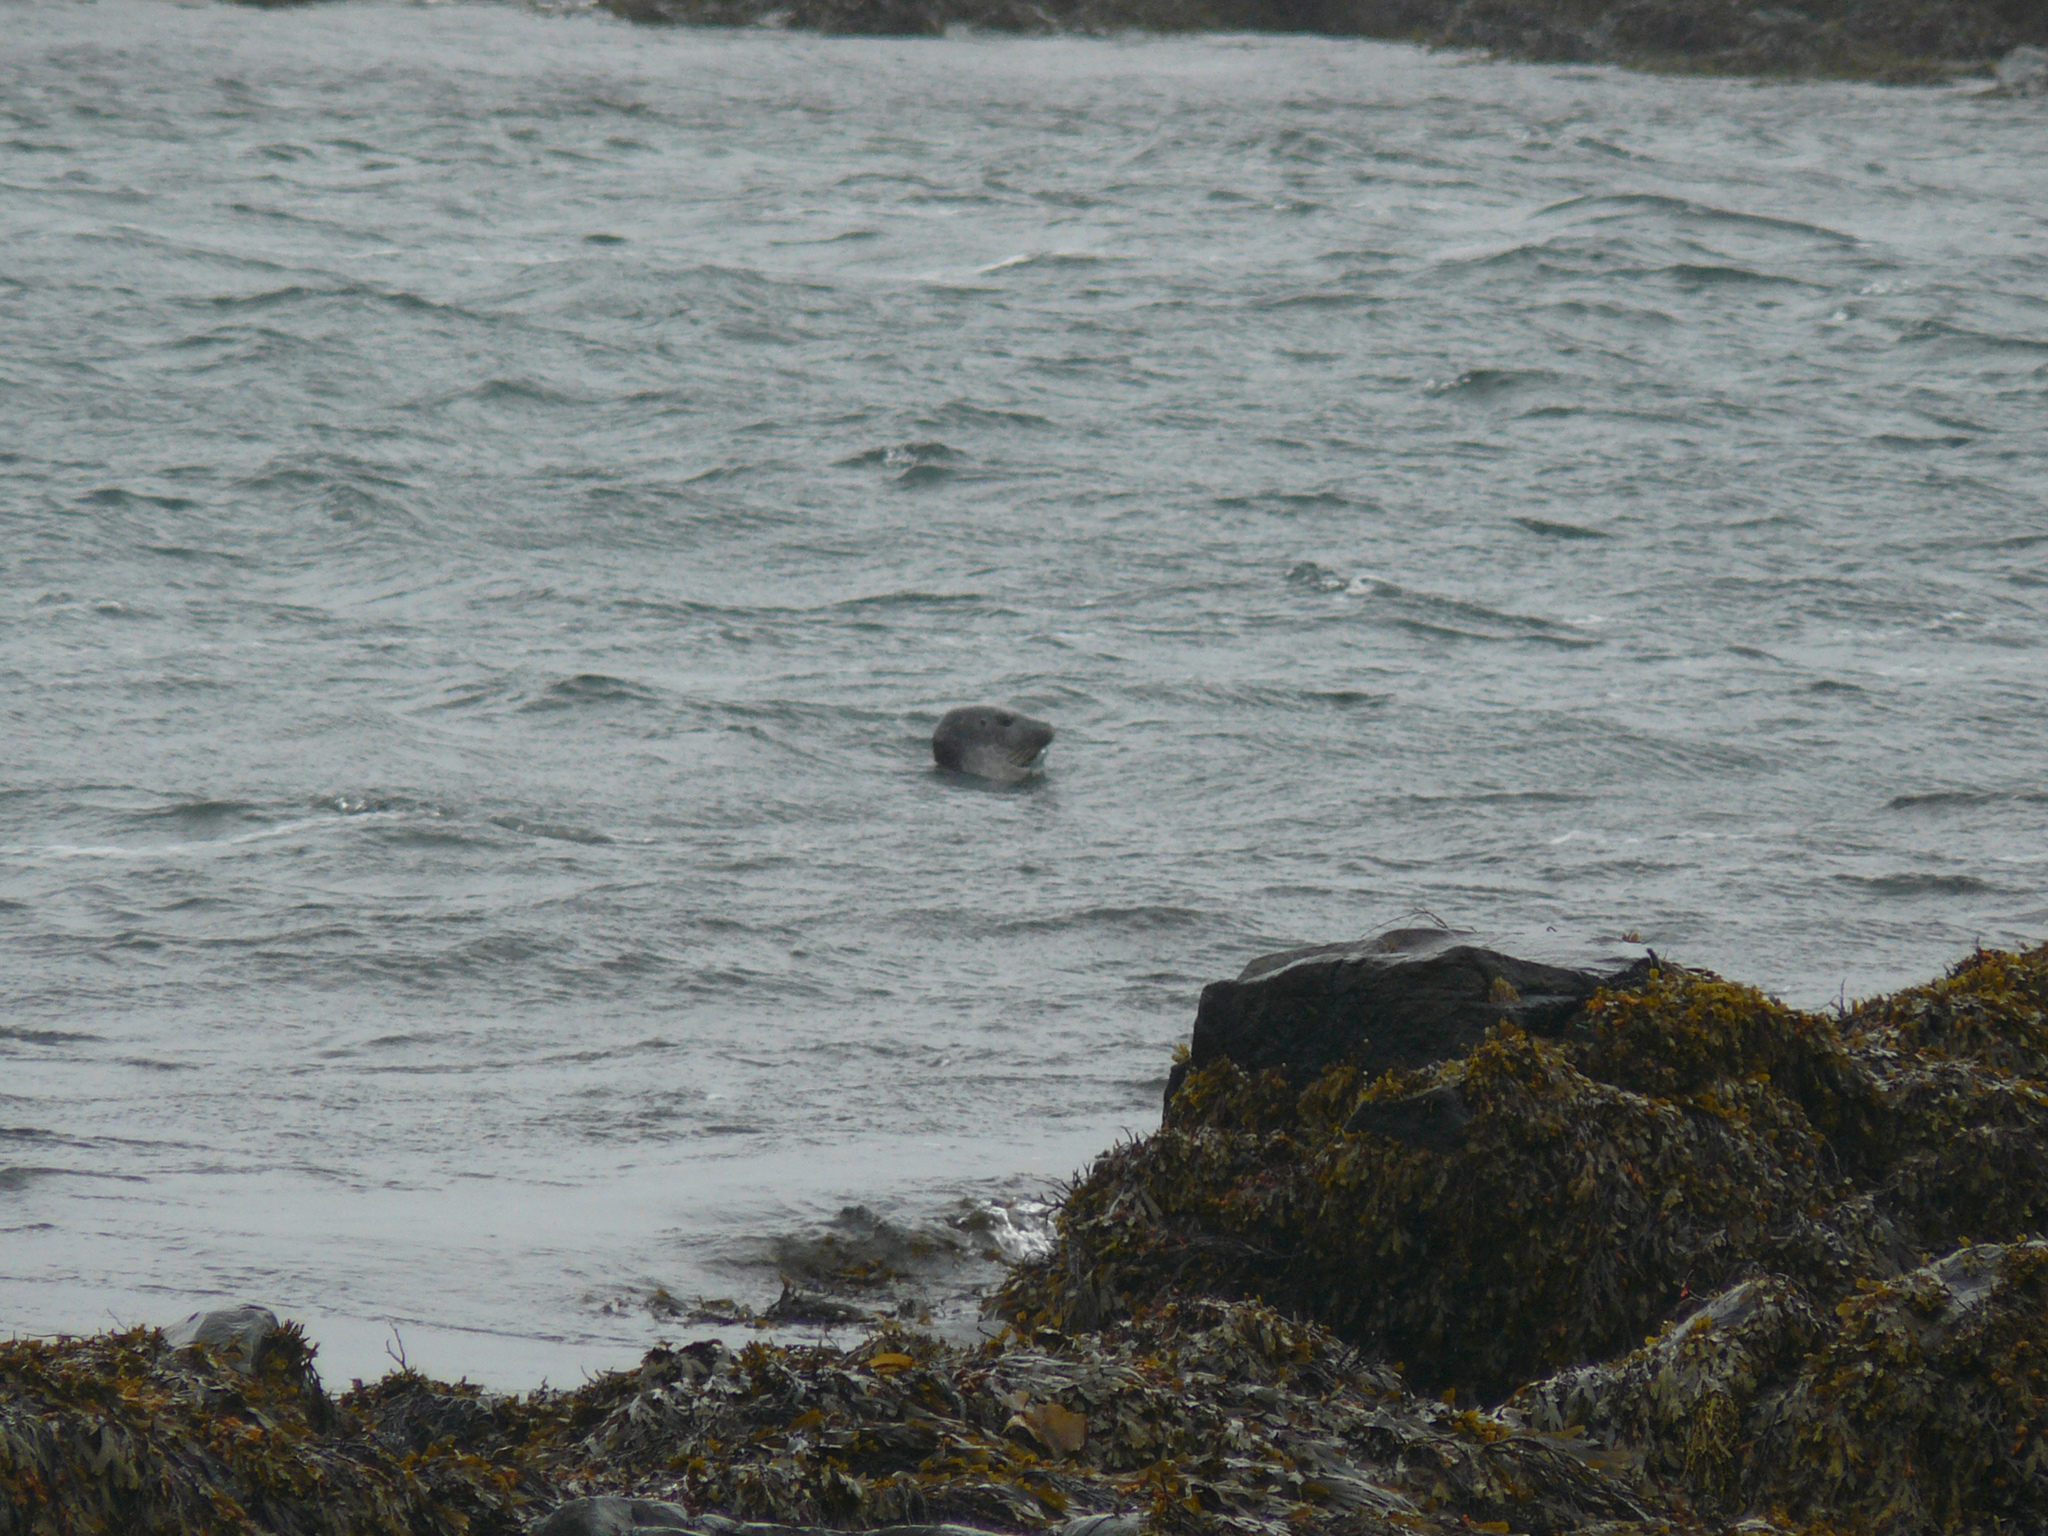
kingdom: Animalia
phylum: Chordata
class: Mammalia
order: Carnivora
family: Phocidae
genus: Phoca
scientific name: Phoca vitulina
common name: Harbor seal
